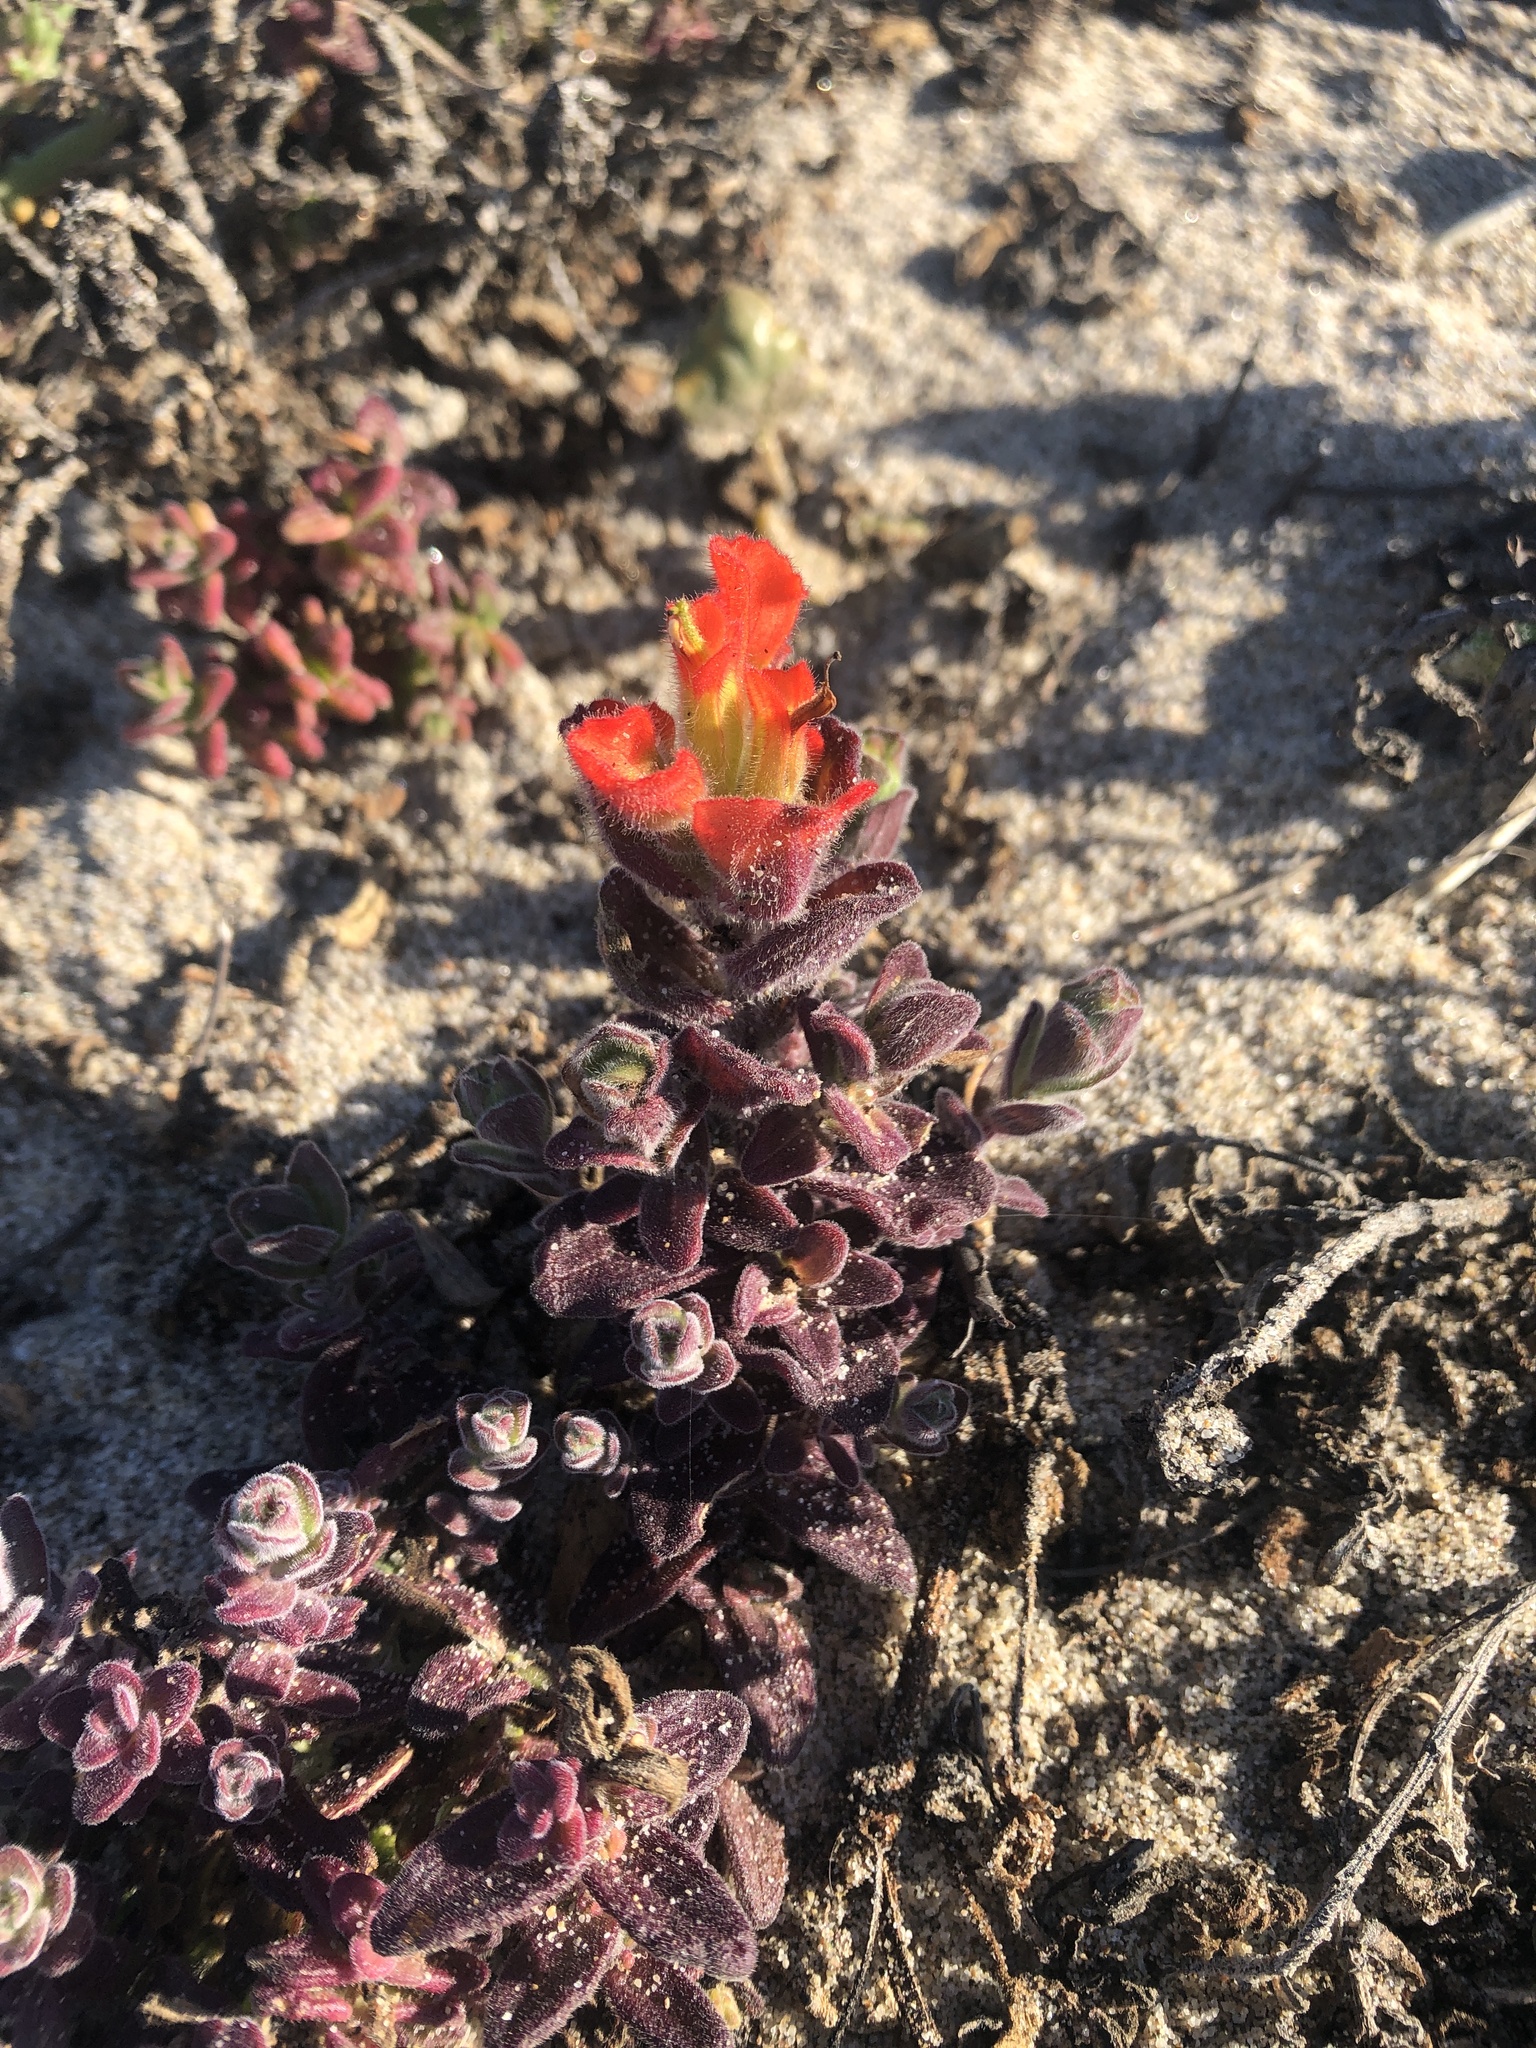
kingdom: Plantae
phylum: Tracheophyta
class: Magnoliopsida
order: Lamiales
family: Orobanchaceae
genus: Castilleja
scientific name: Castilleja latifolia
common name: Monterey indian paintbrush
